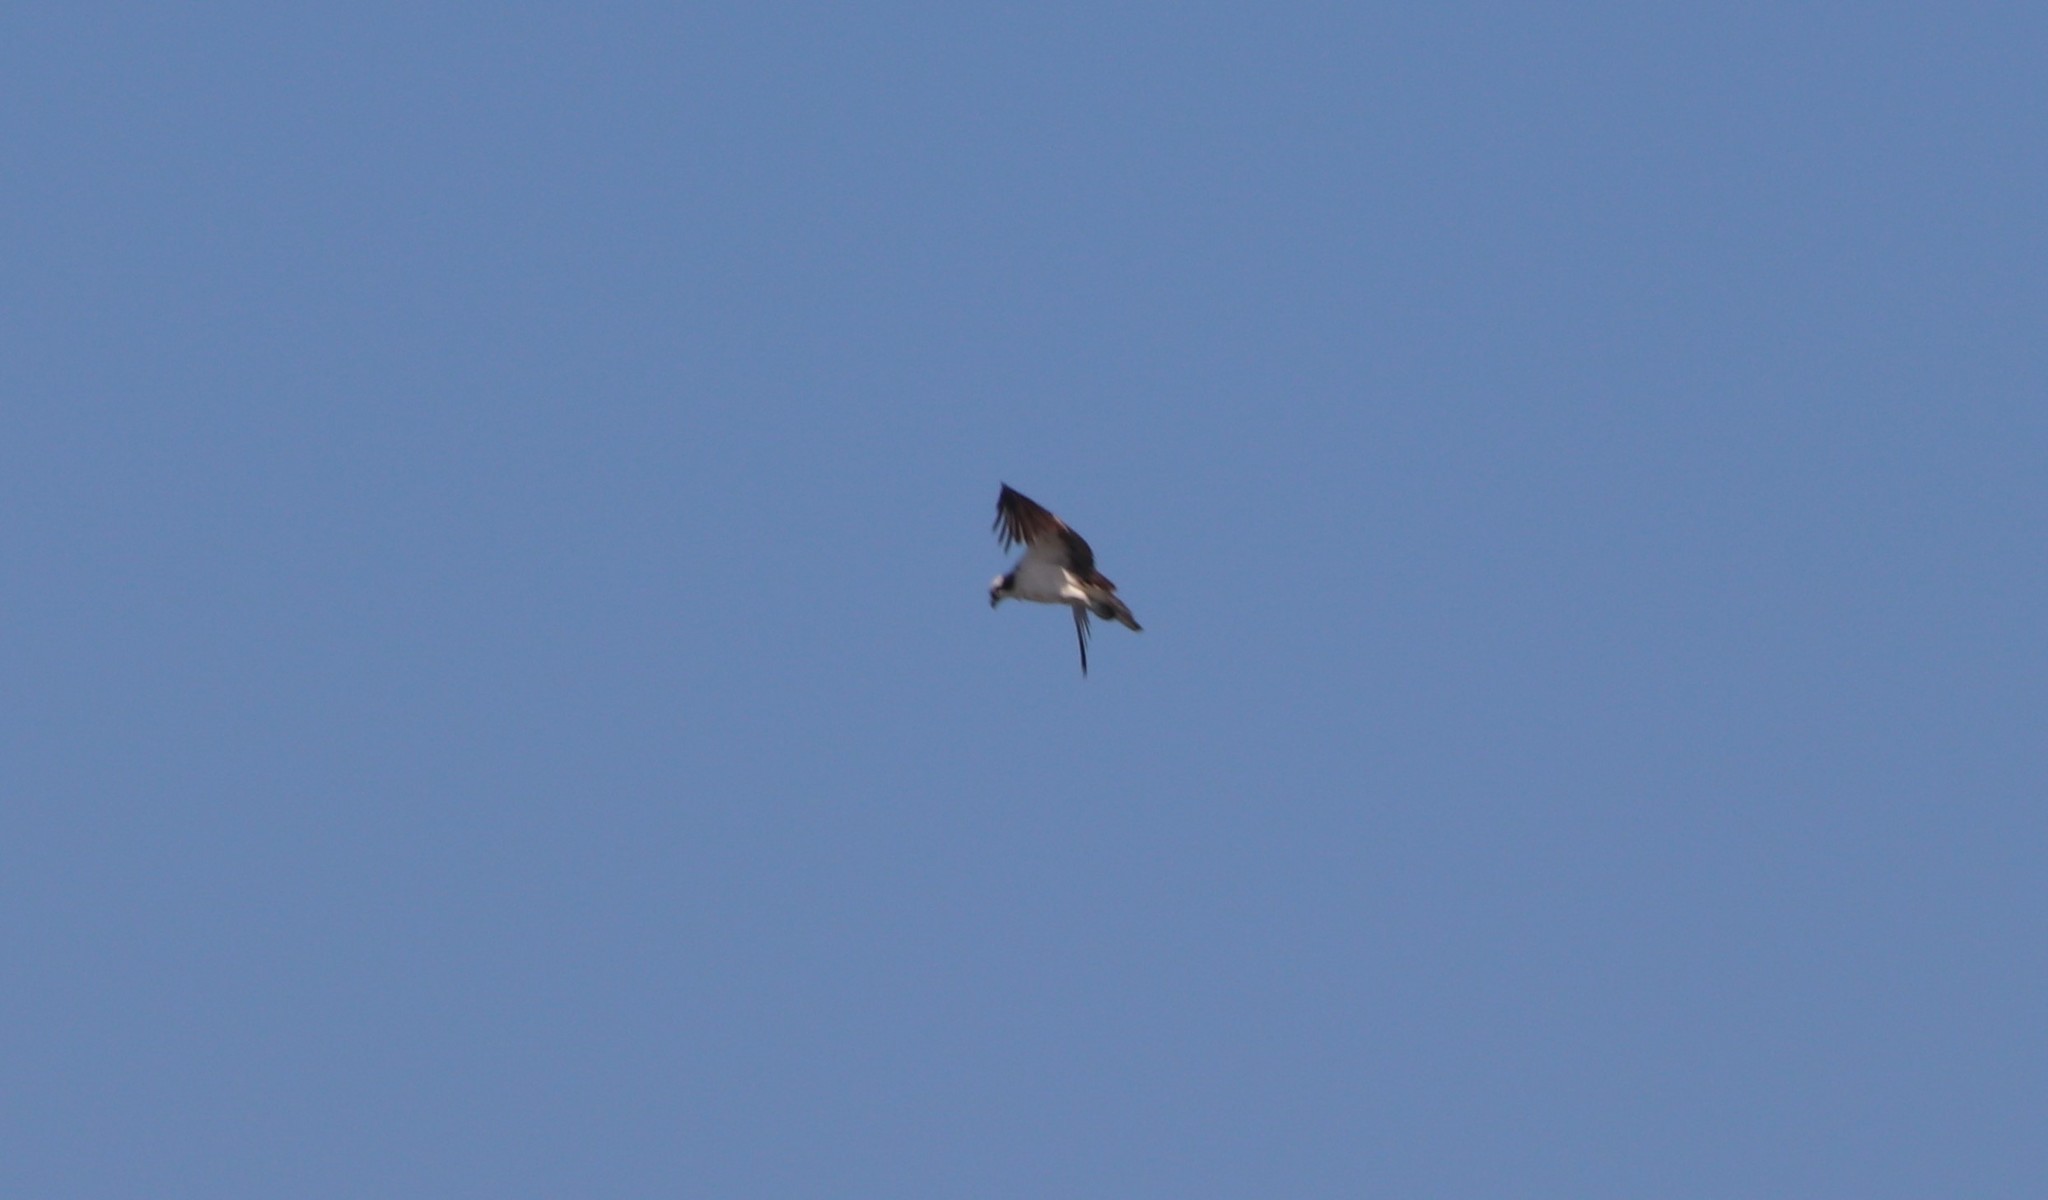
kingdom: Animalia
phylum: Chordata
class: Aves
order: Accipitriformes
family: Pandionidae
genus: Pandion
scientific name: Pandion haliaetus
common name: Osprey
